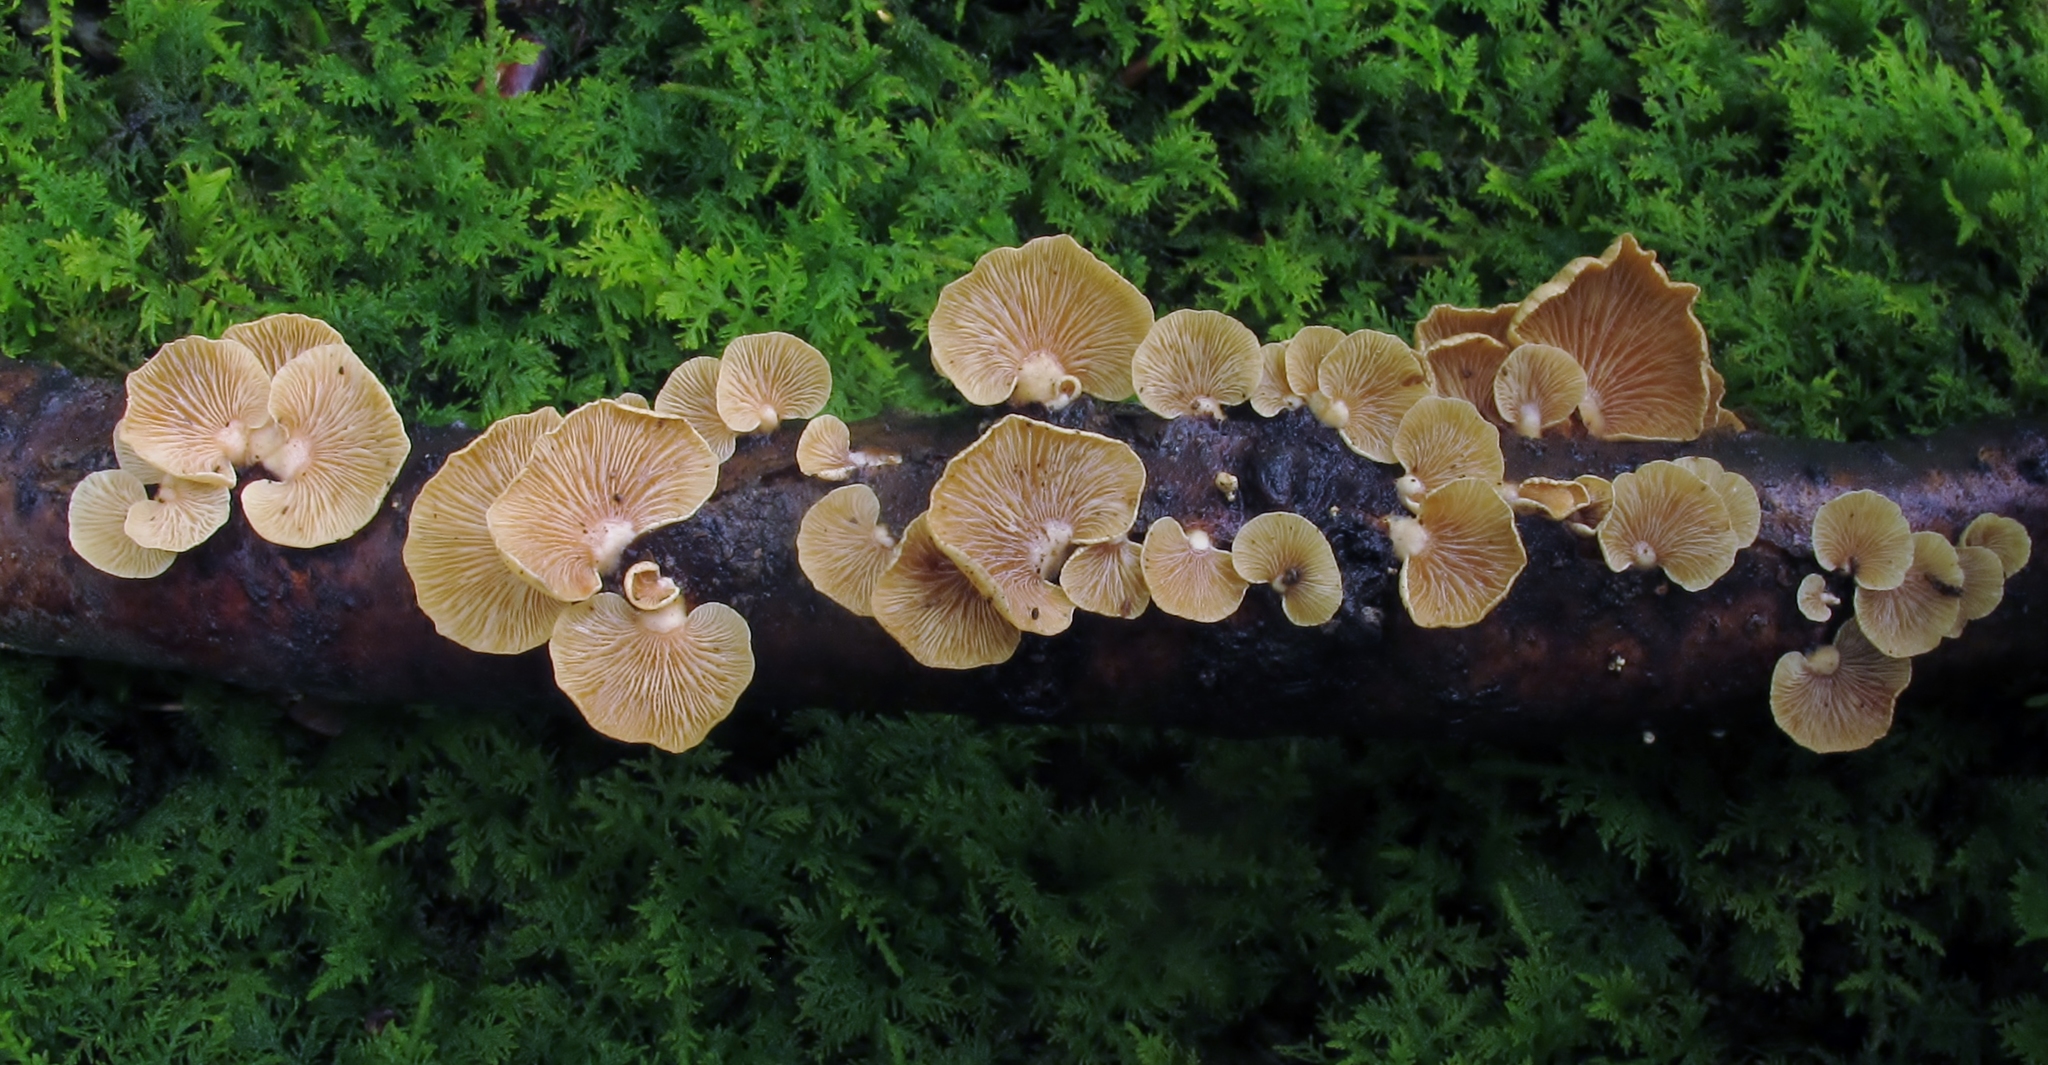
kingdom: Fungi
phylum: Basidiomycota
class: Agaricomycetes
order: Agaricales
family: Mycenaceae
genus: Panellus
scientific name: Panellus stipticus
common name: Bitter oysterling
